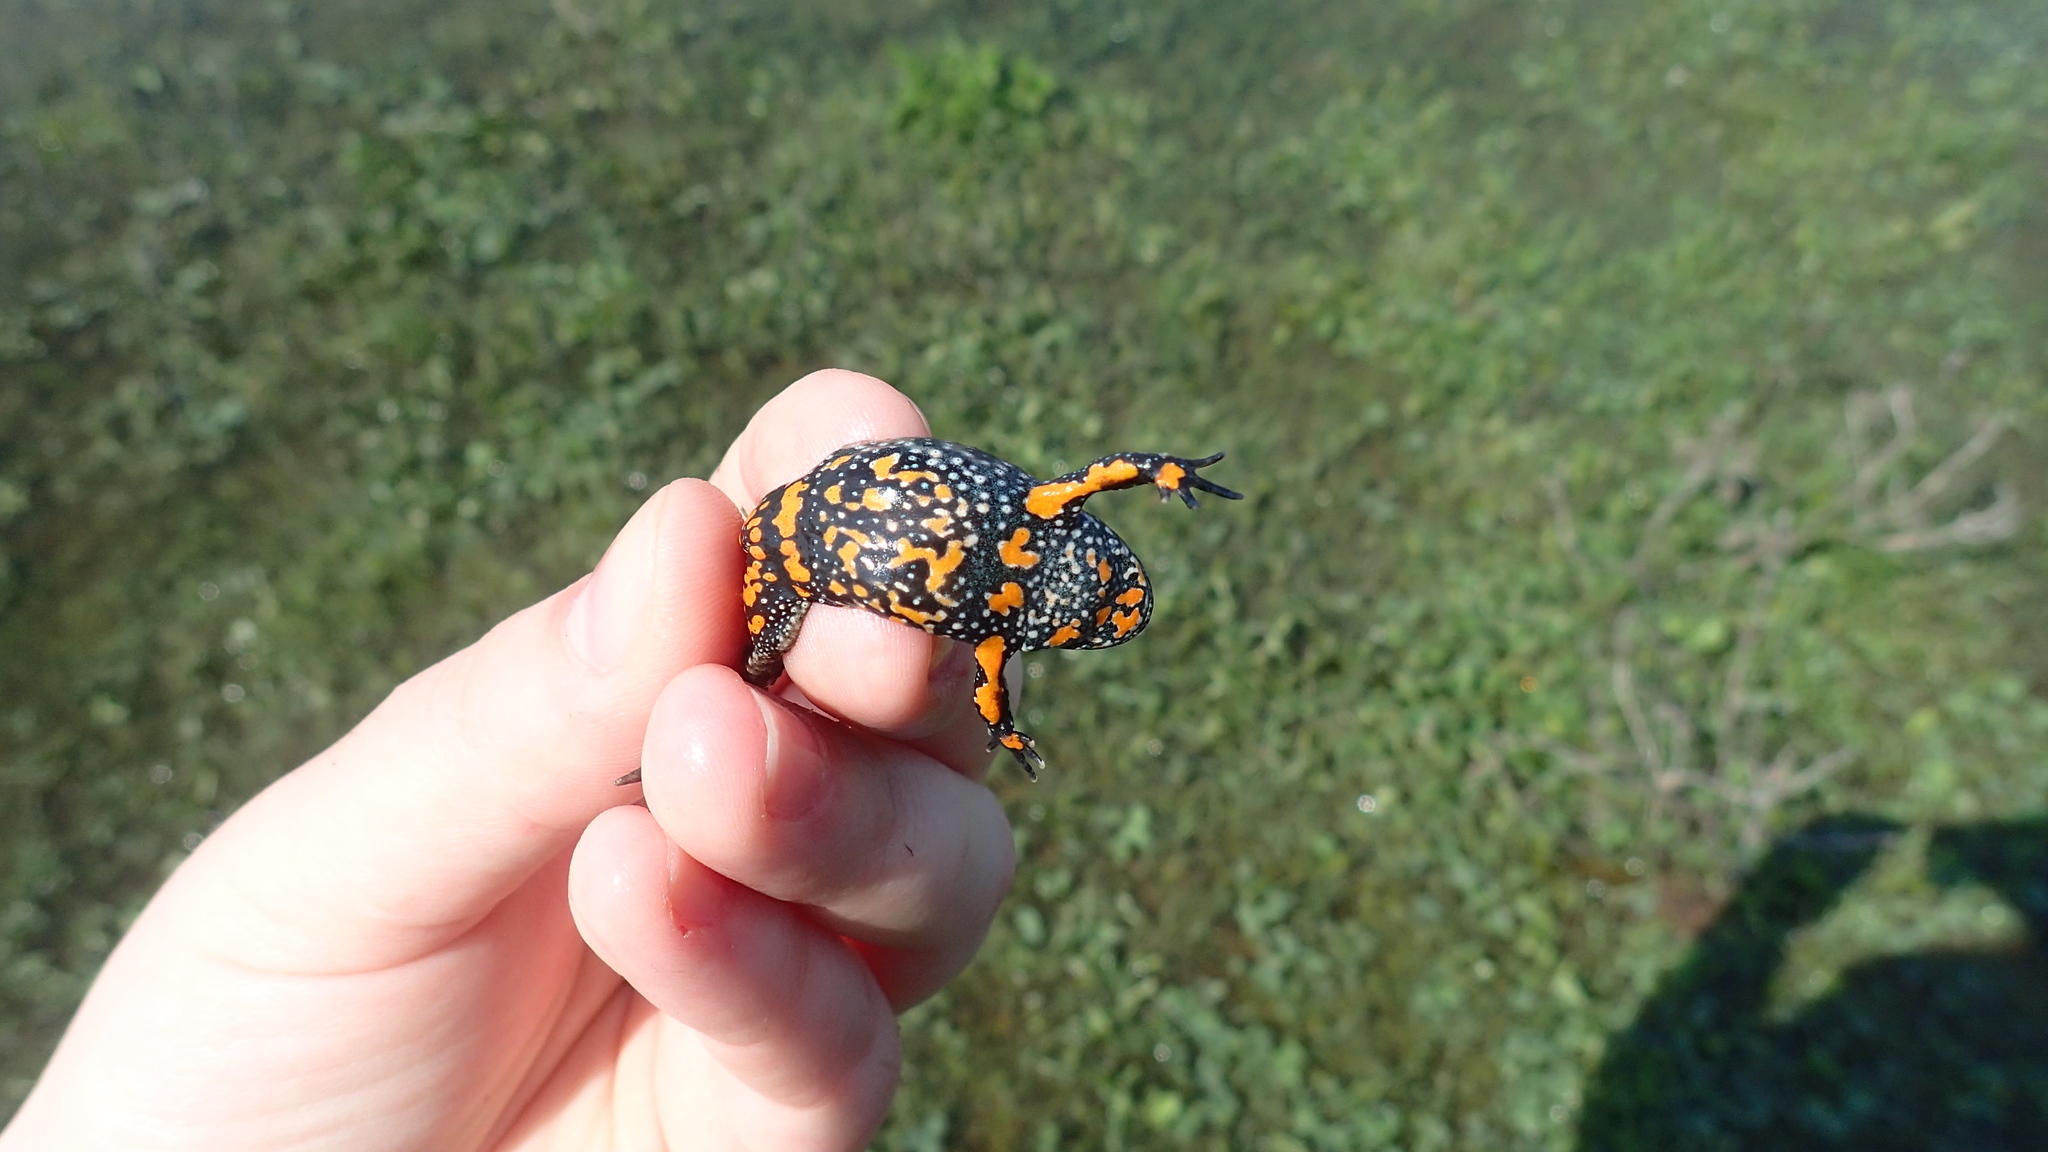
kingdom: Animalia
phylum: Chordata
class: Amphibia
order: Anura
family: Bombinatoridae
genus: Bombina
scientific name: Bombina bombina
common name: Fire-bellied toad
